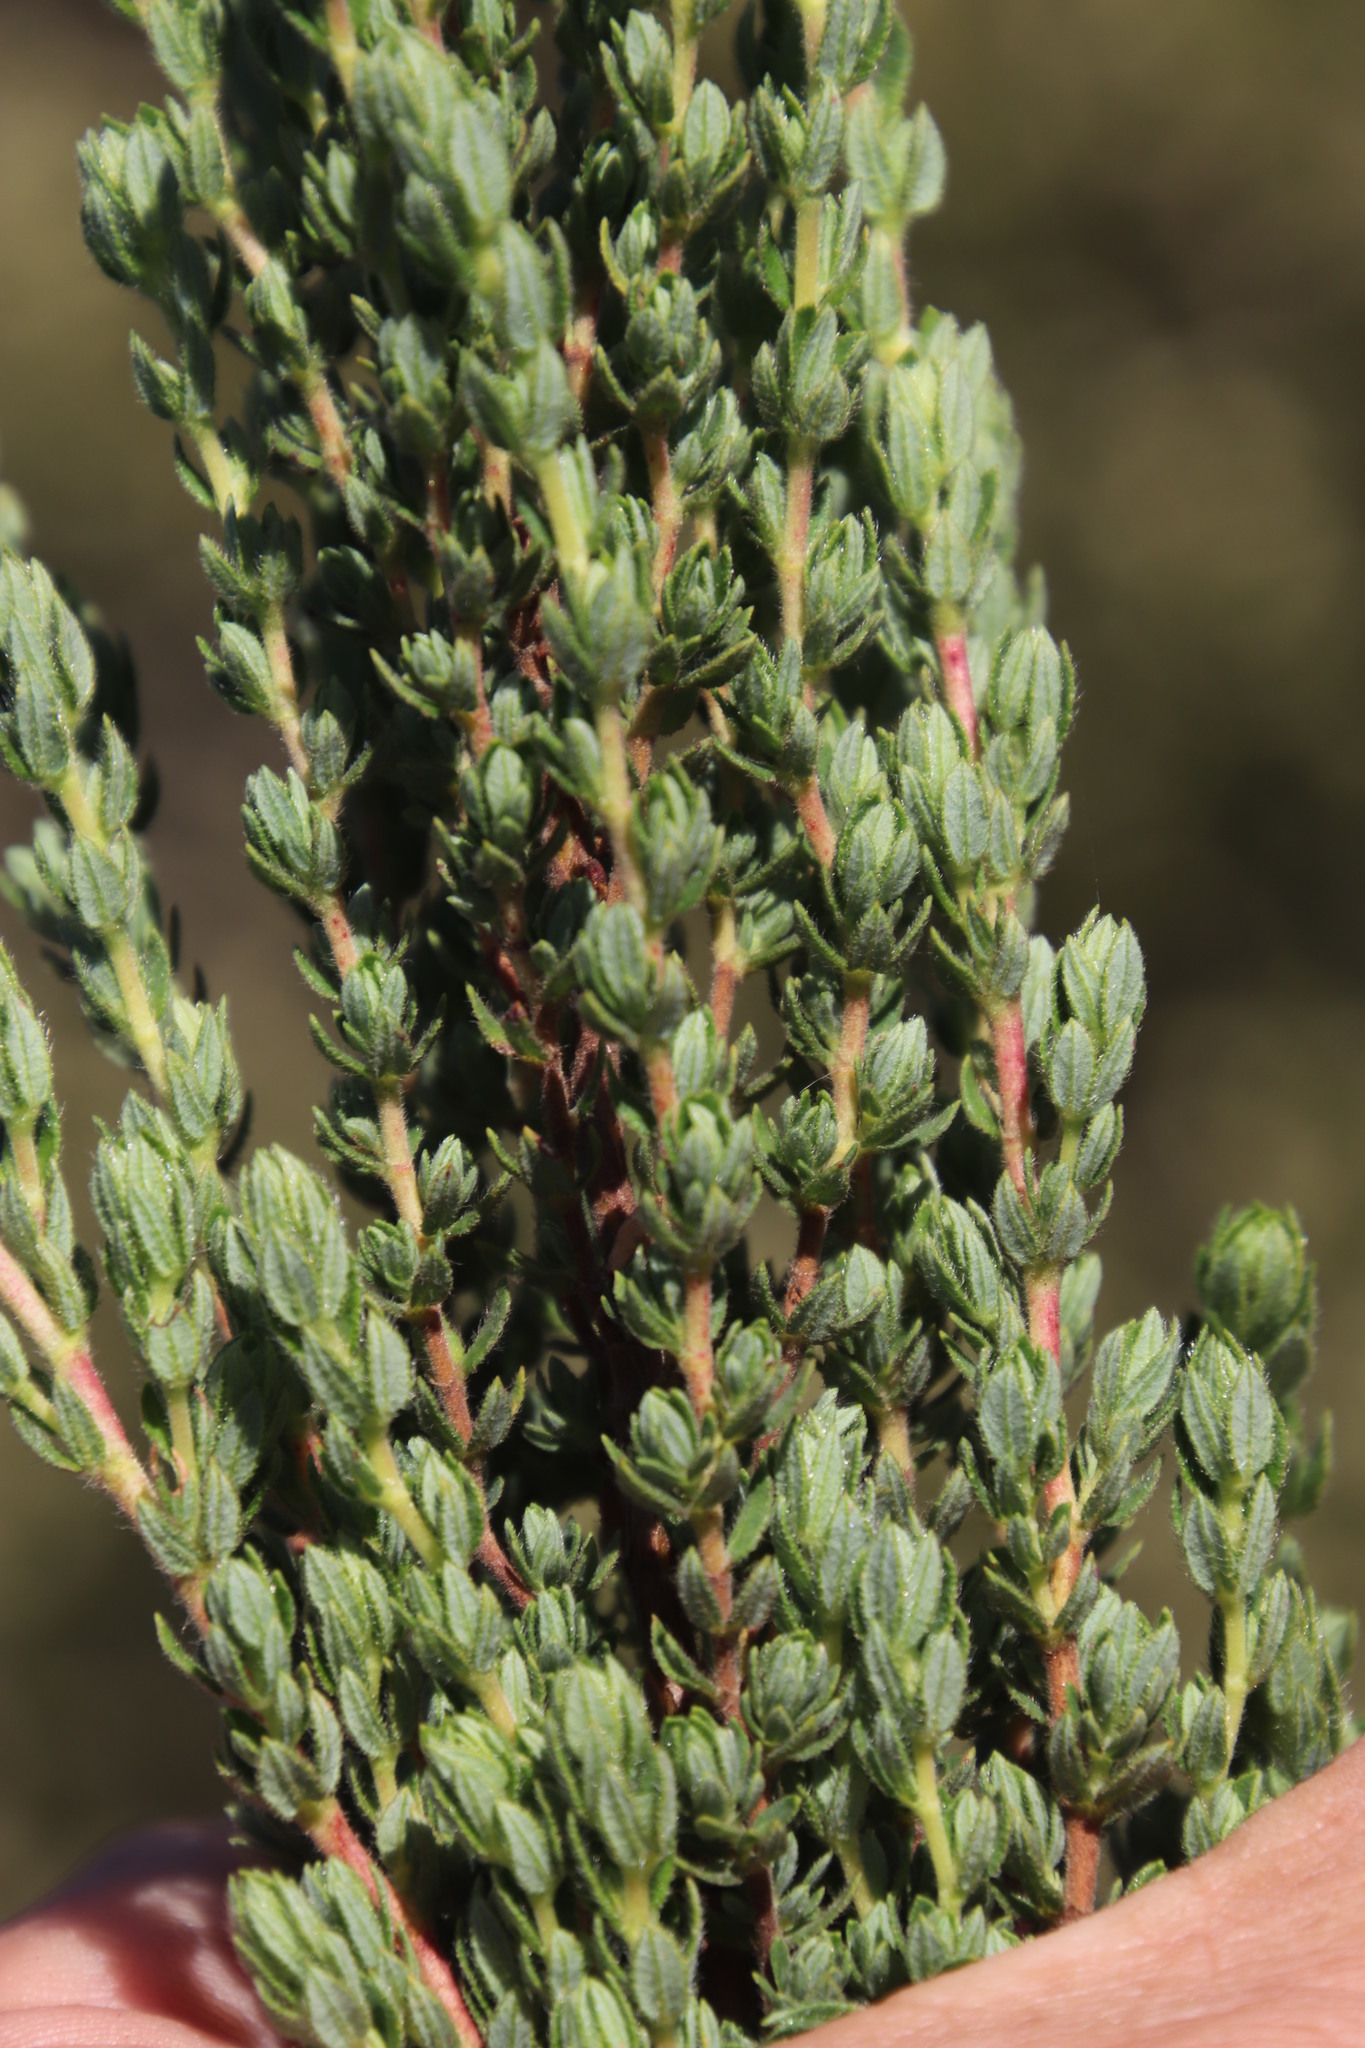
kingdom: Plantae
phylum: Tracheophyta
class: Magnoliopsida
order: Rosales
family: Rosaceae
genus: Cliffortia
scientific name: Cliffortia polygonifolia
